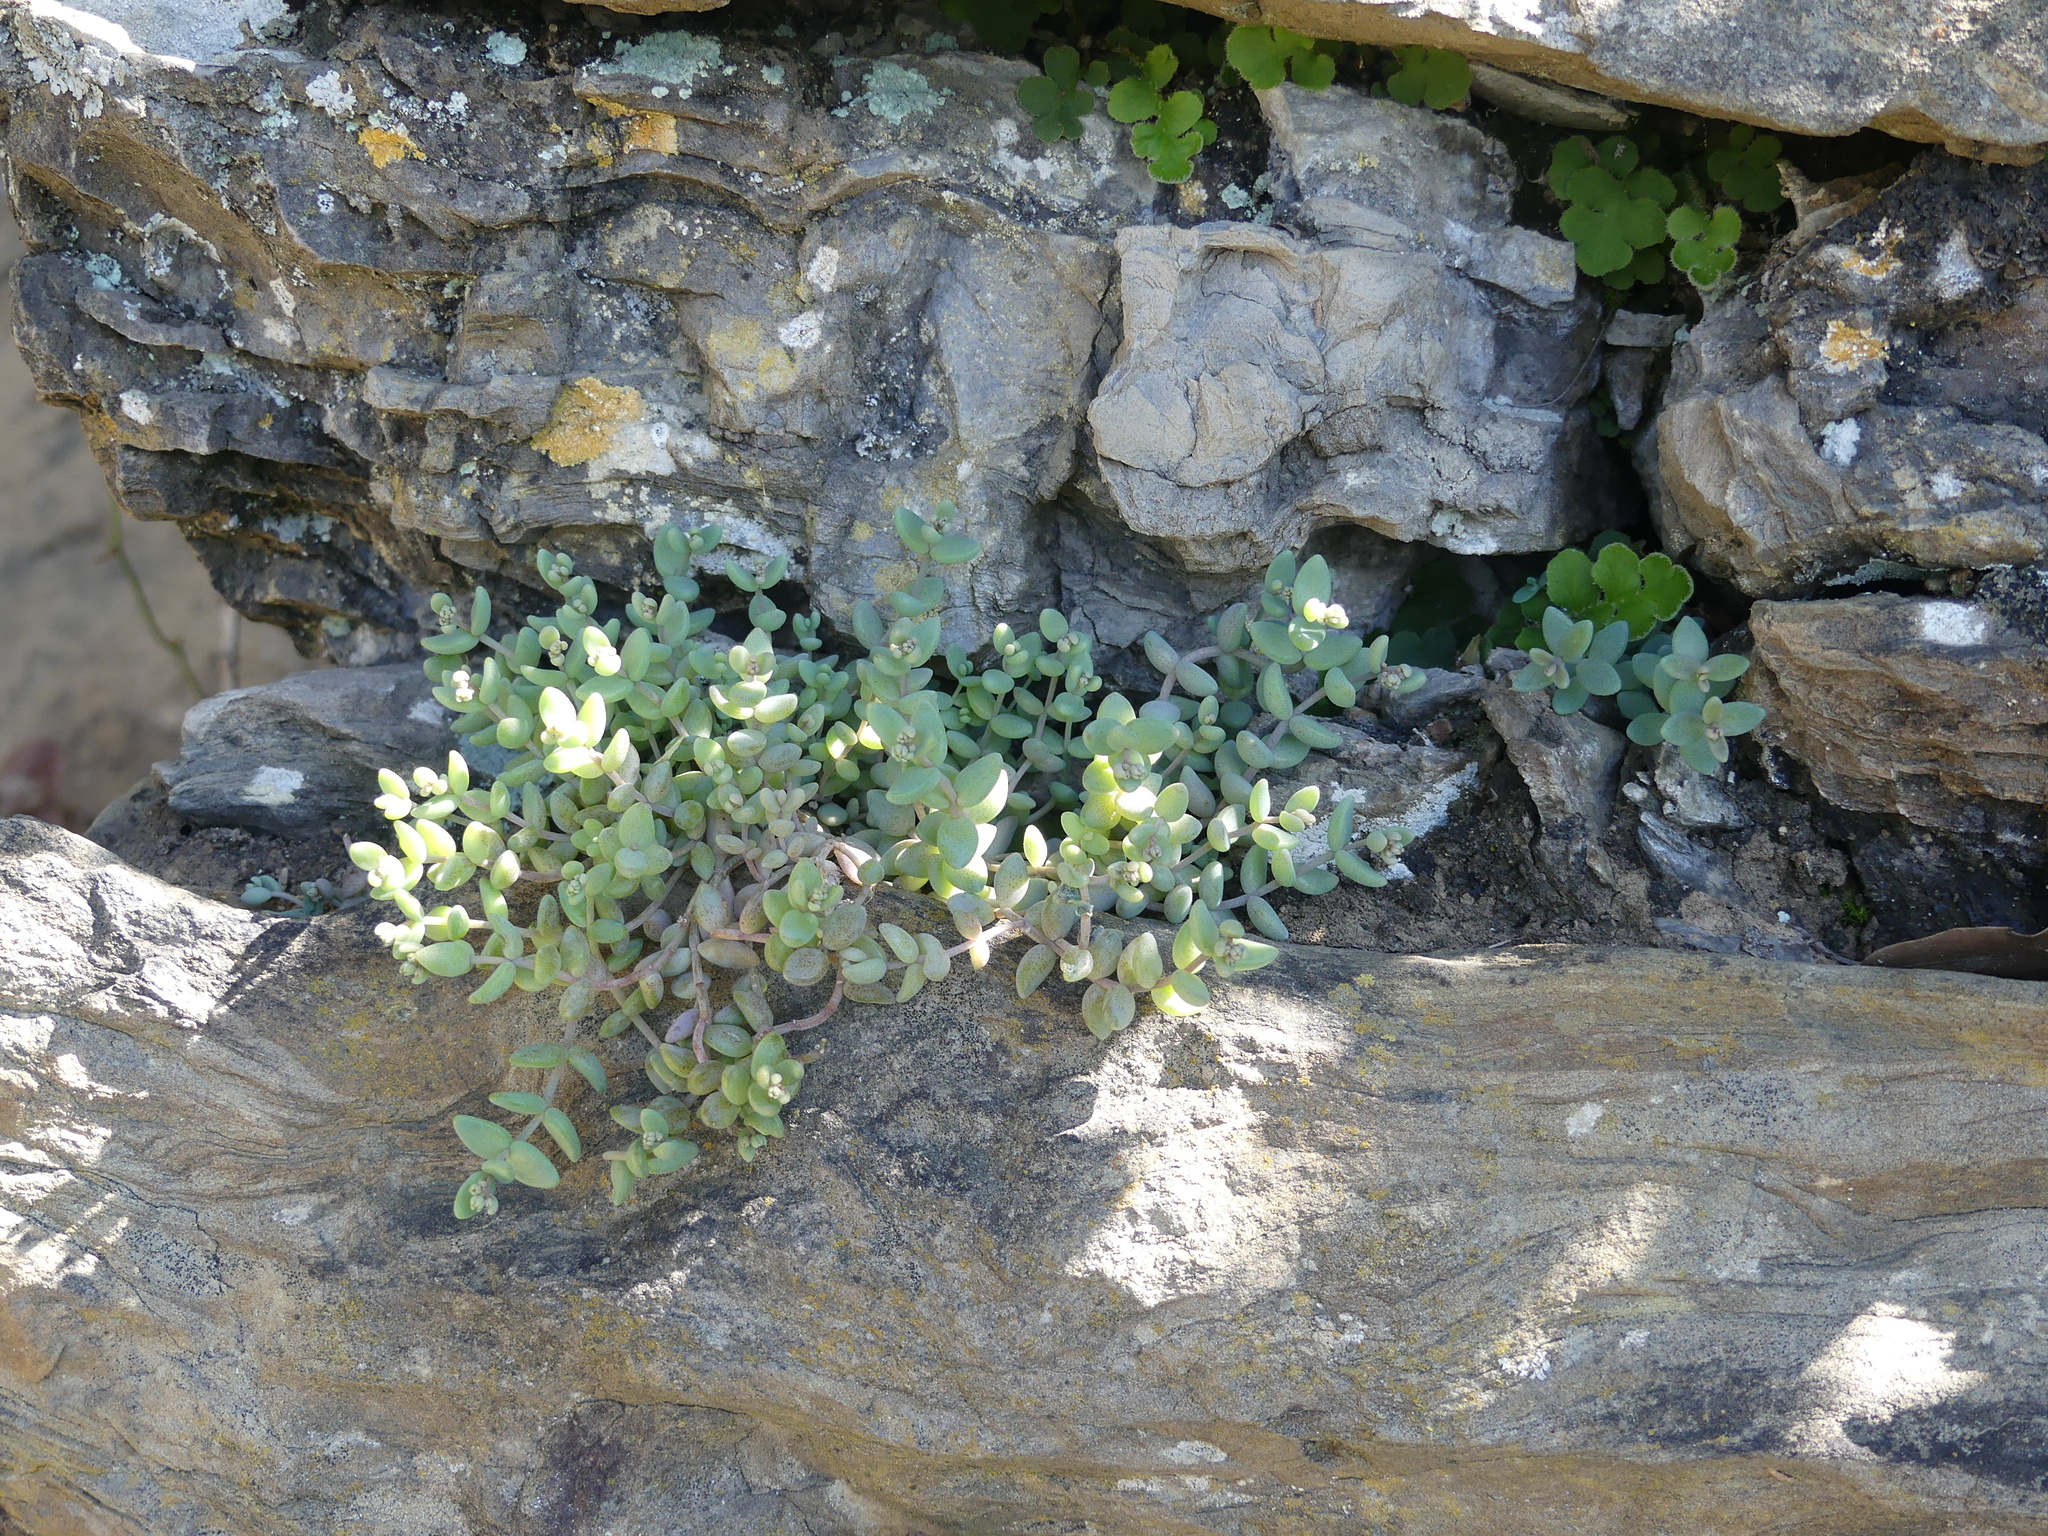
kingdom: Plantae
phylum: Tracheophyta
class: Magnoliopsida
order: Saxifragales
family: Crassulaceae
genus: Sedum
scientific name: Sedum dasyphyllum
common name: Thick-leaf stonecrop
